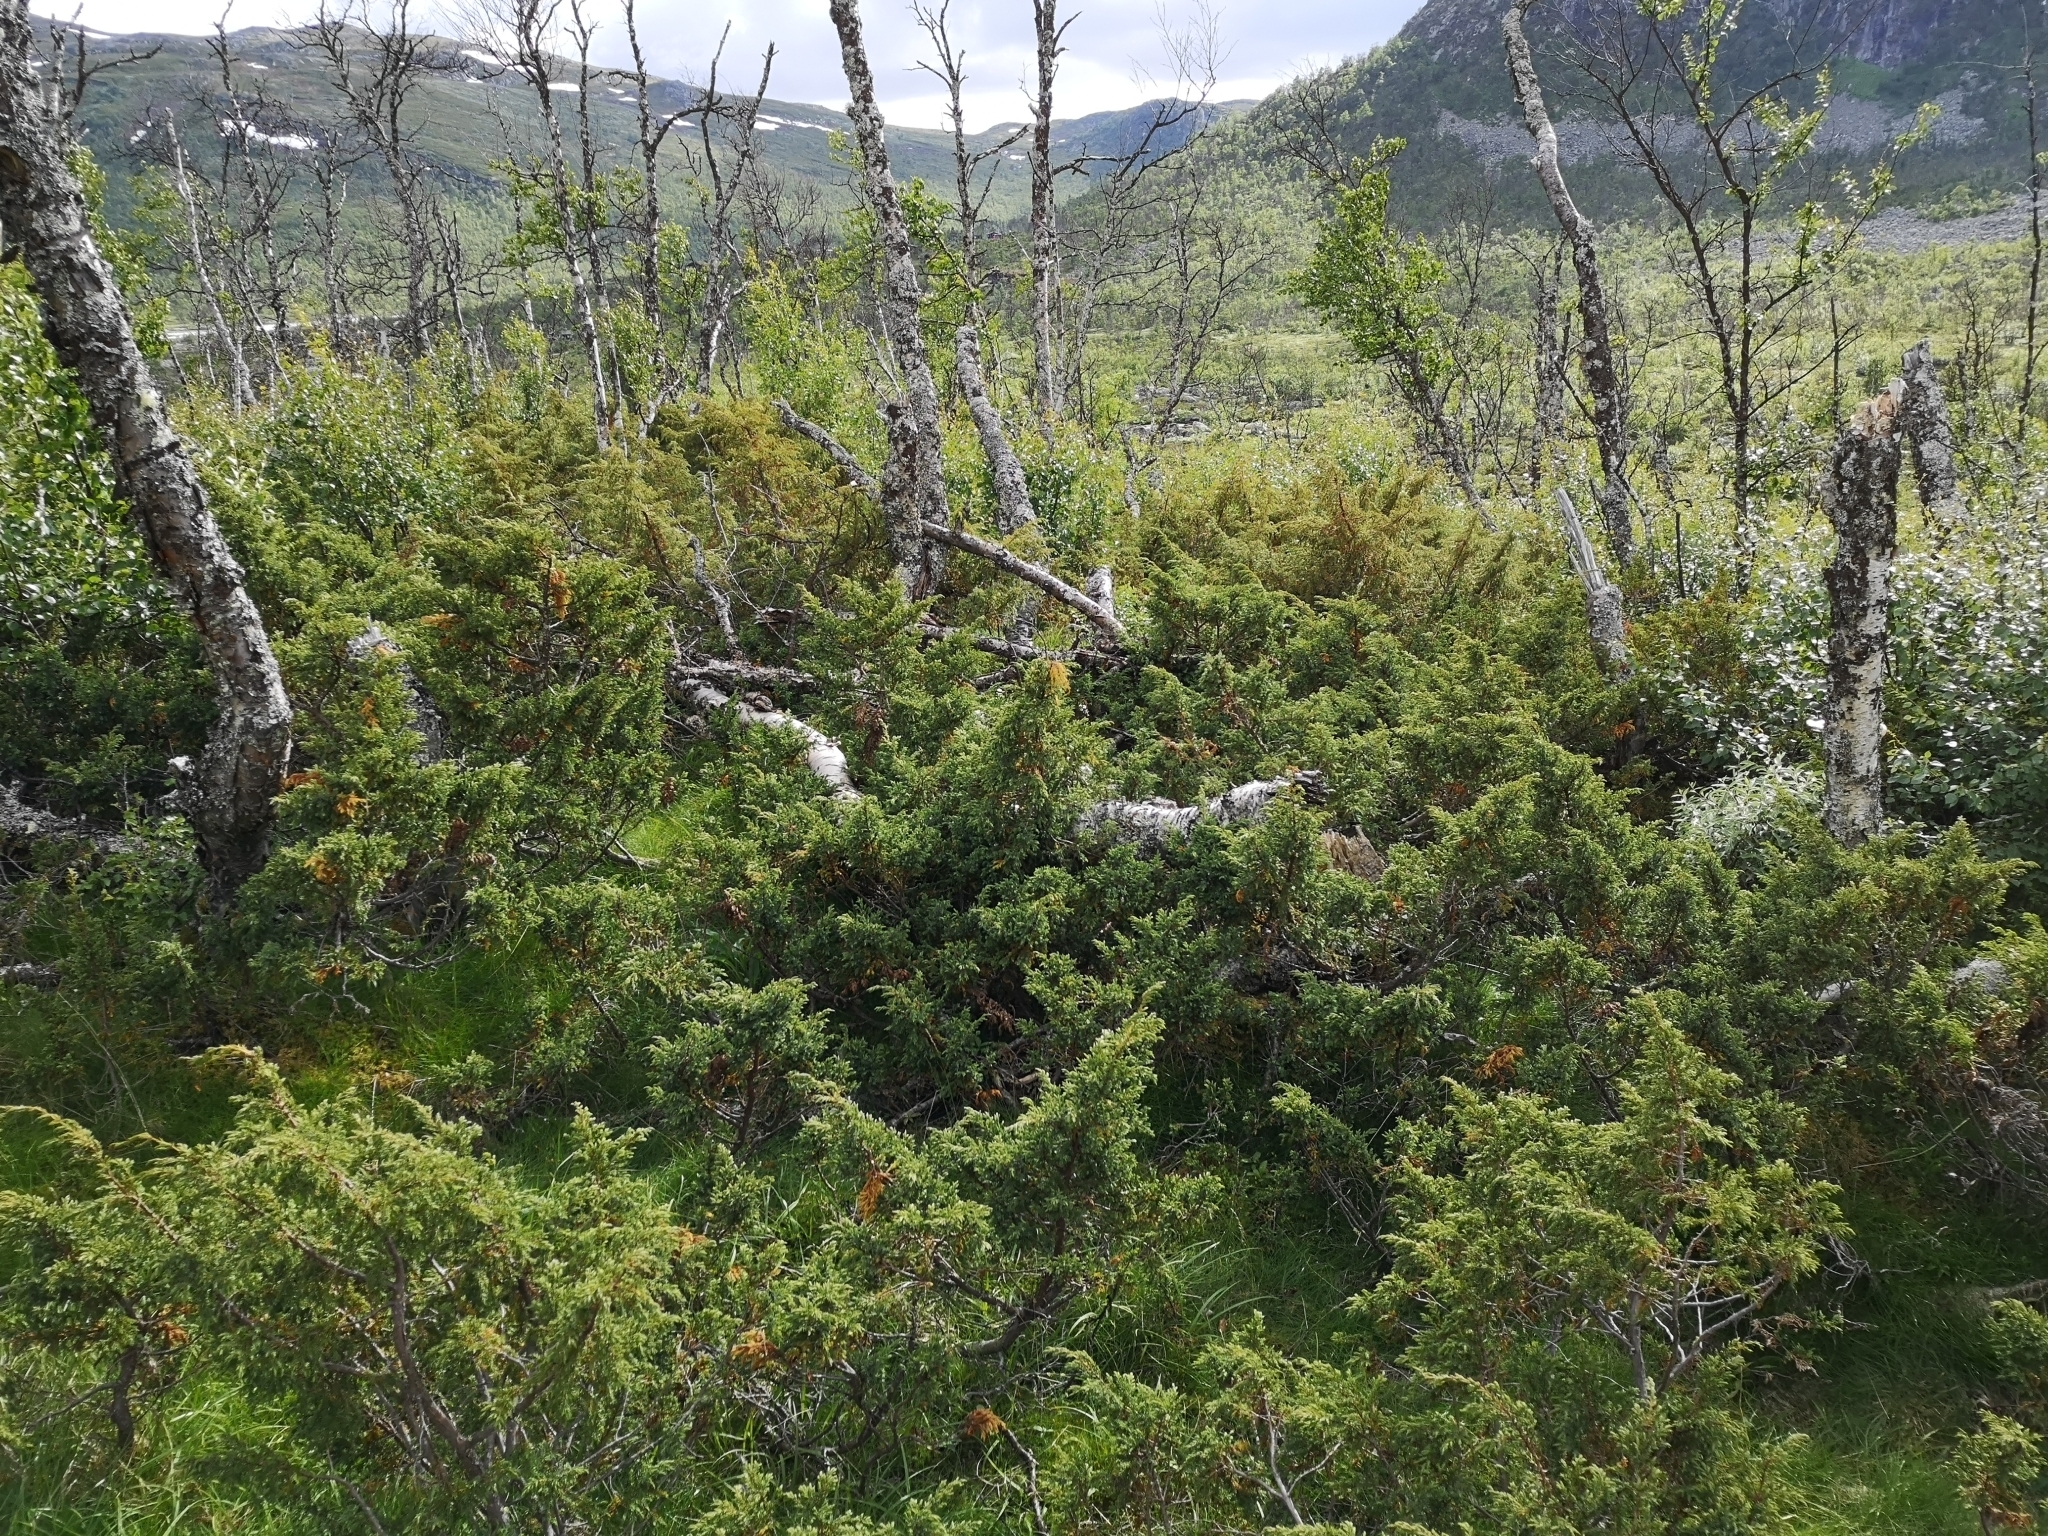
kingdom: Plantae
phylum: Tracheophyta
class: Pinopsida
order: Pinales
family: Cupressaceae
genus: Juniperus
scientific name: Juniperus communis
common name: Common juniper
